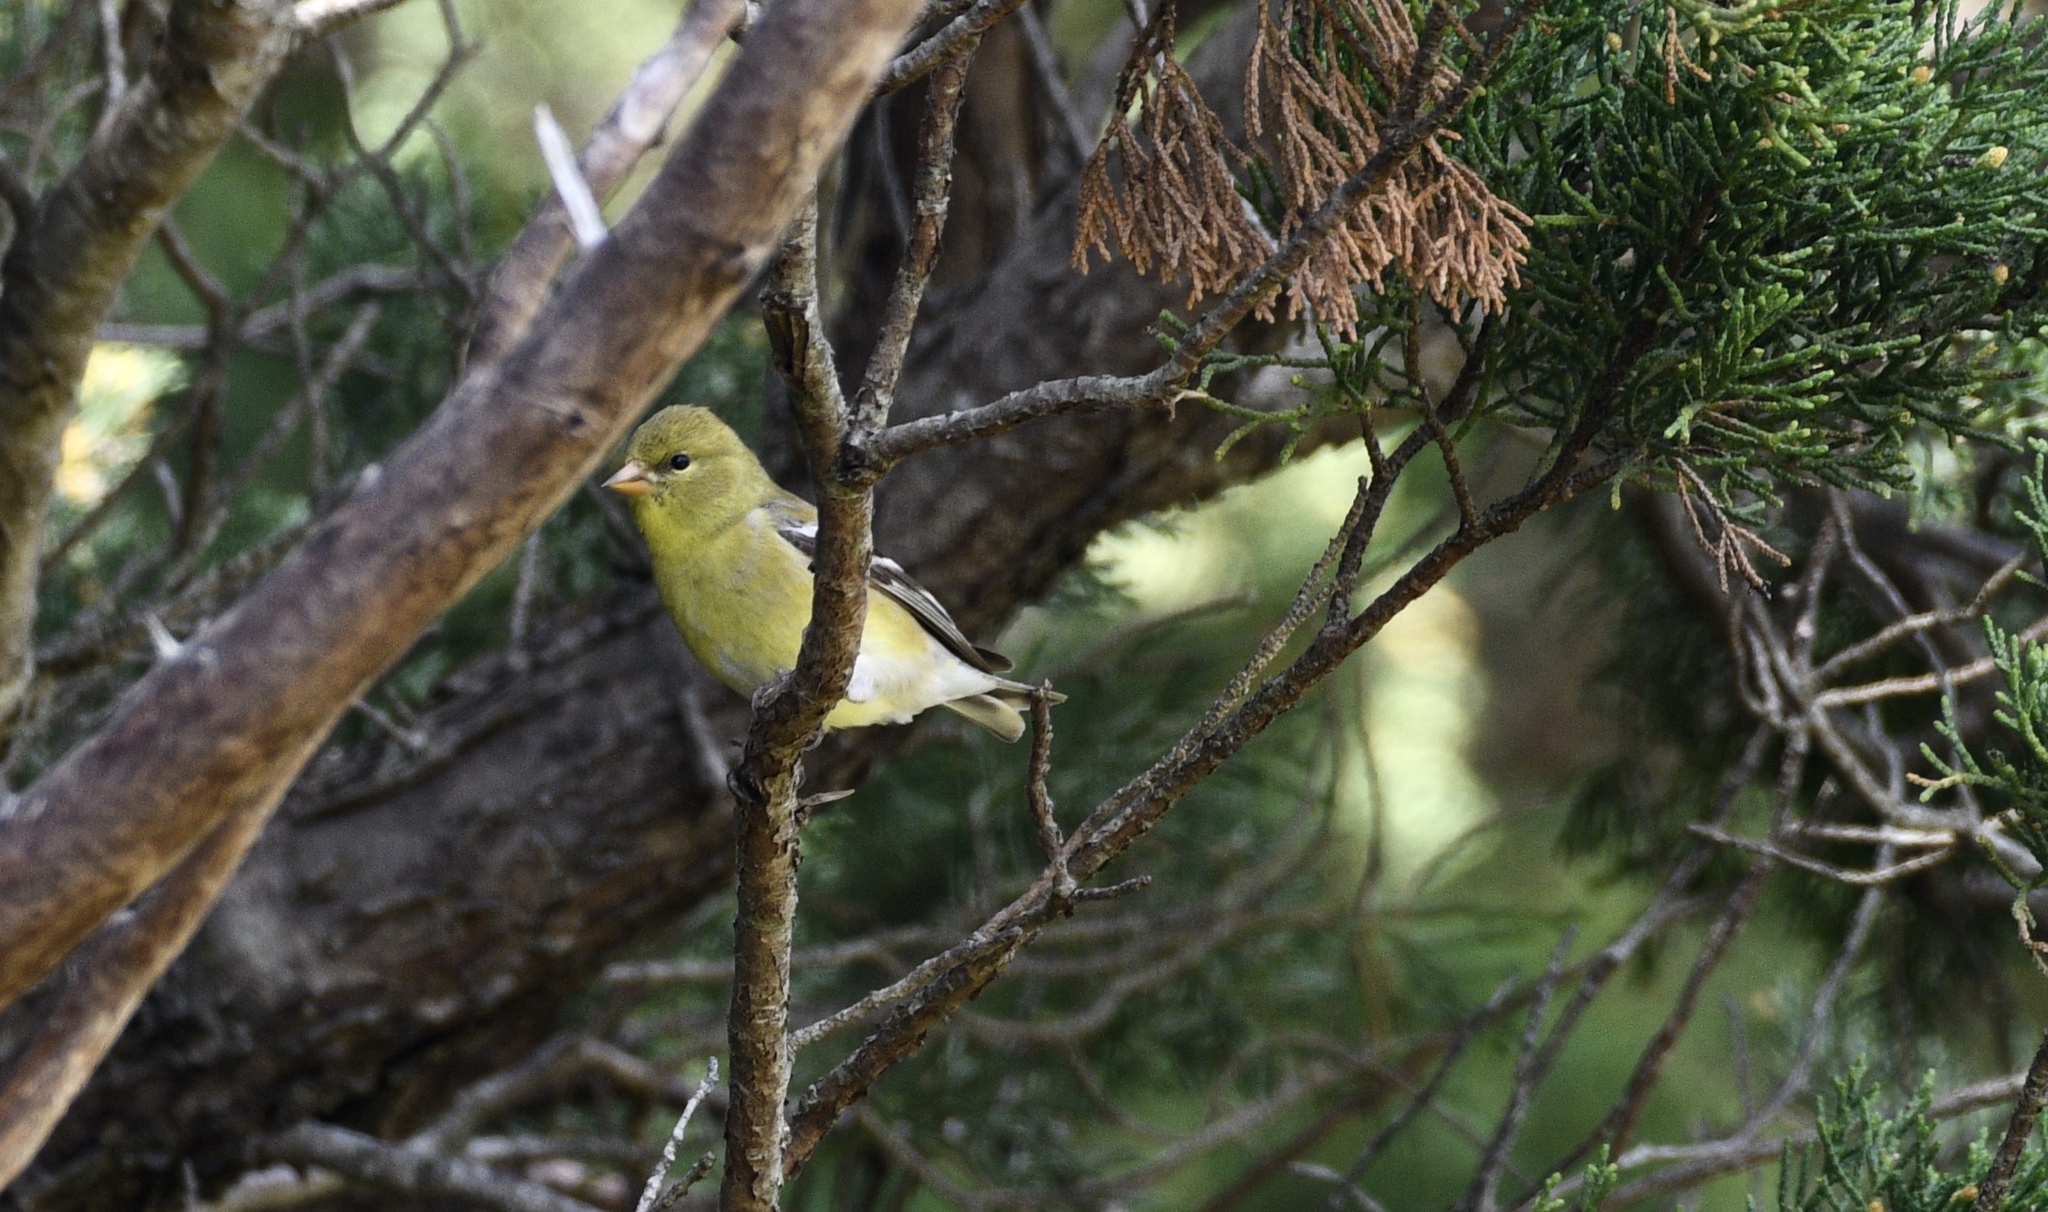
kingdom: Animalia
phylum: Chordata
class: Aves
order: Passeriformes
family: Fringillidae
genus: Spinus
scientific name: Spinus tristis
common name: American goldfinch
